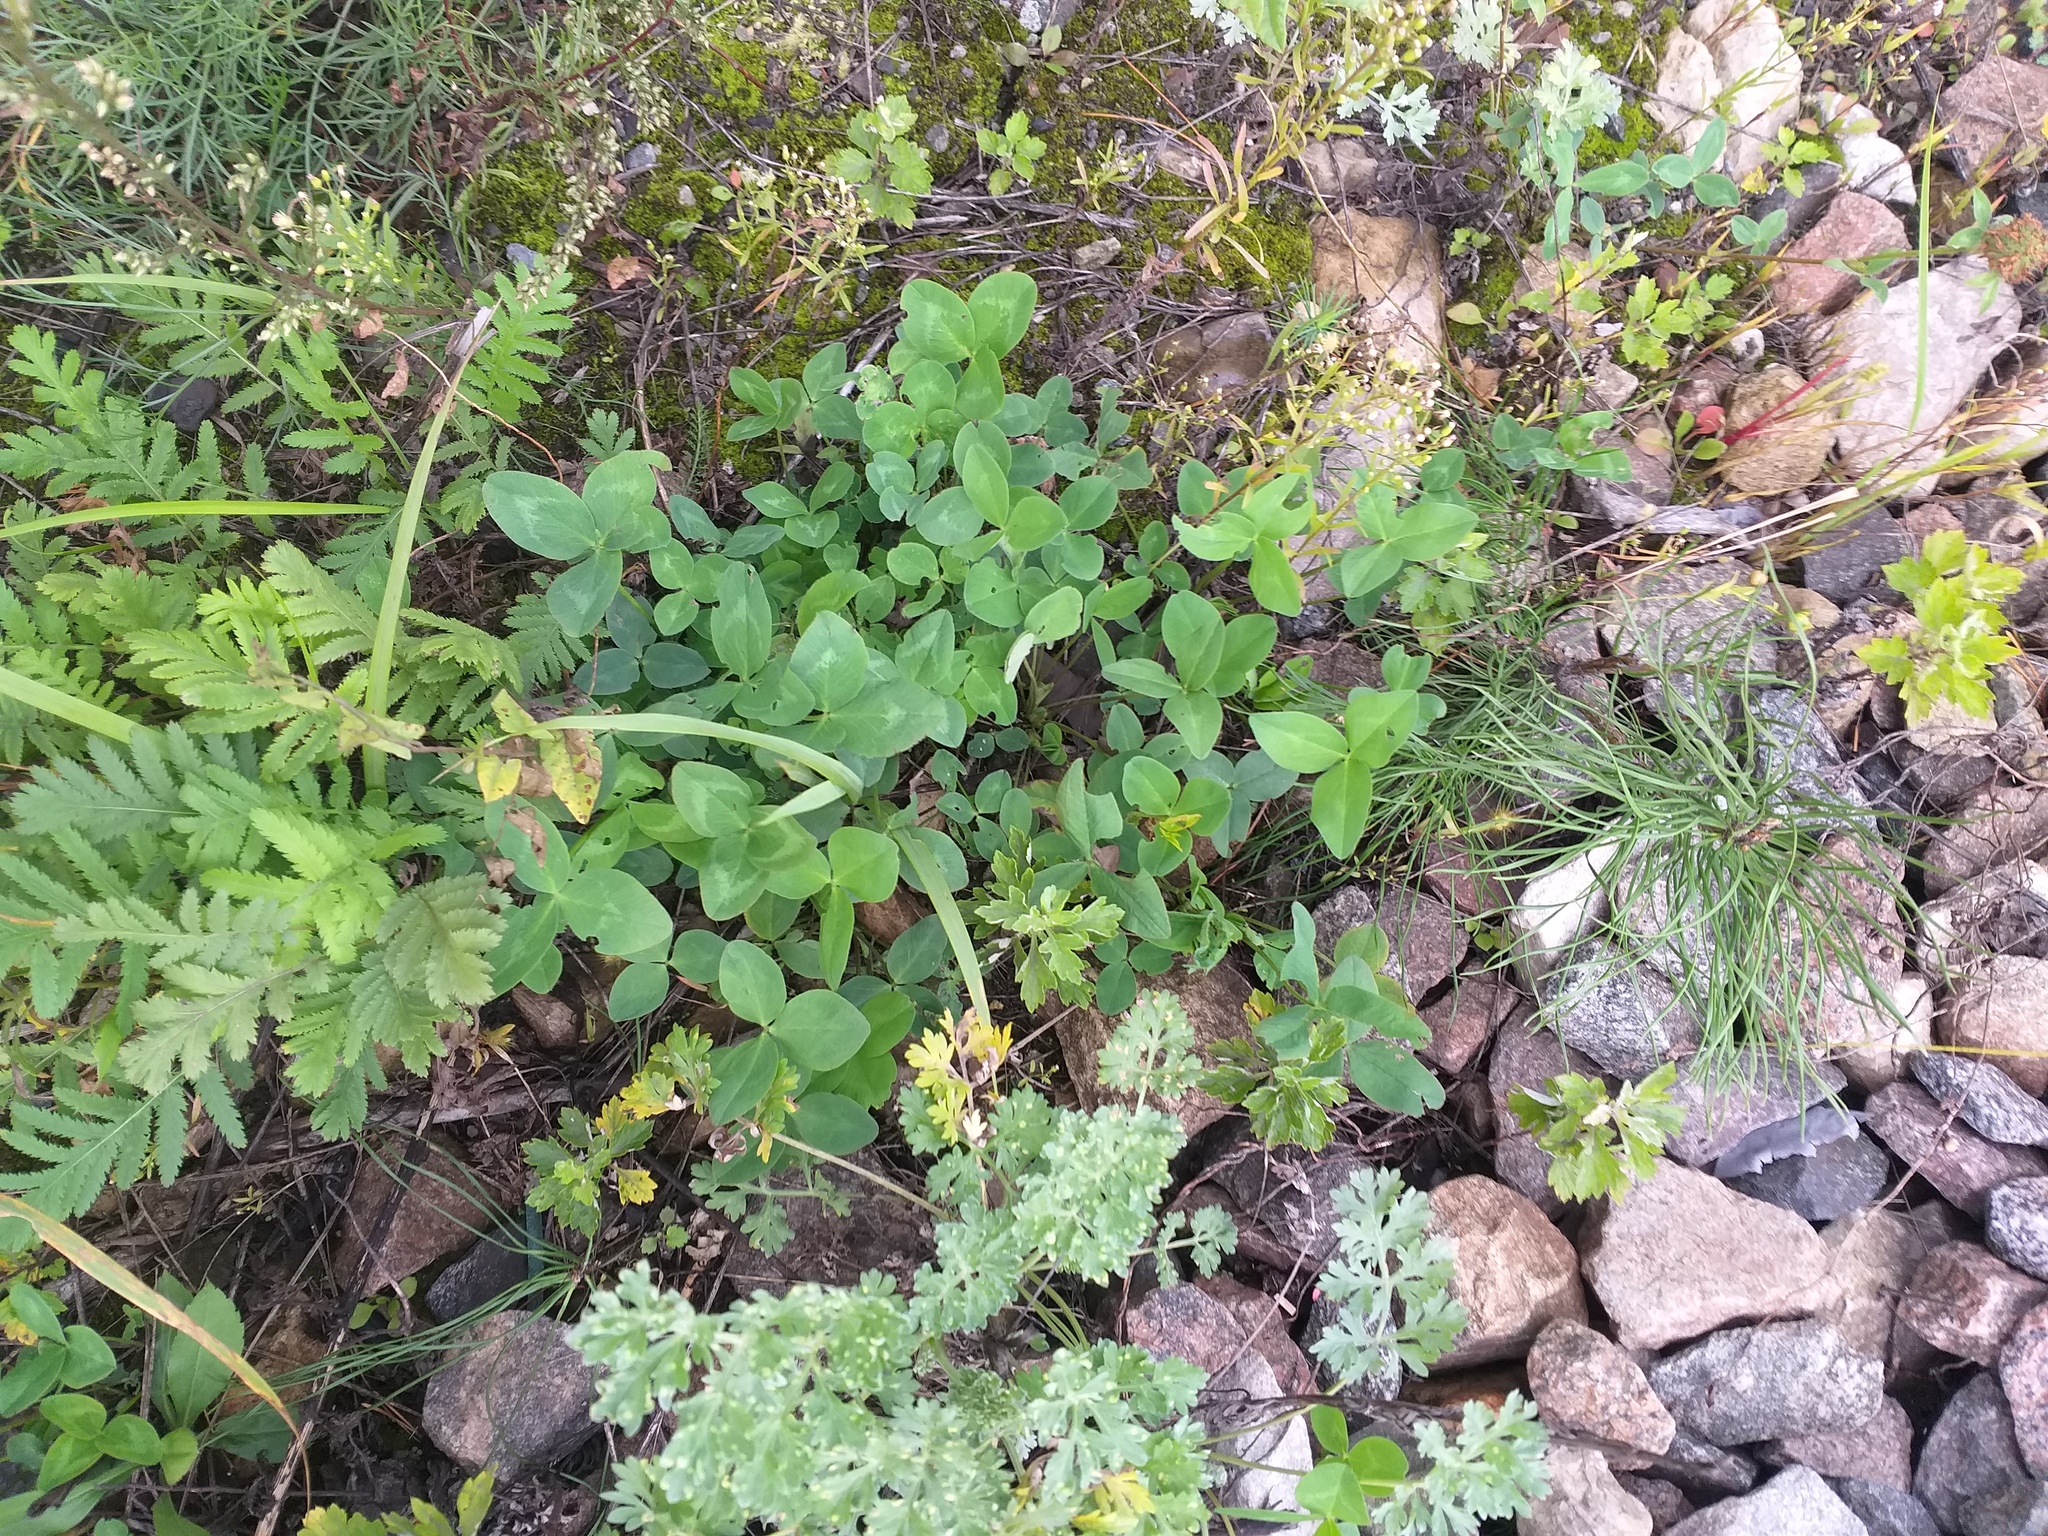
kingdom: Plantae
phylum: Tracheophyta
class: Magnoliopsida
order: Fabales
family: Fabaceae
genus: Trifolium
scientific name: Trifolium pratense
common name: Red clover
